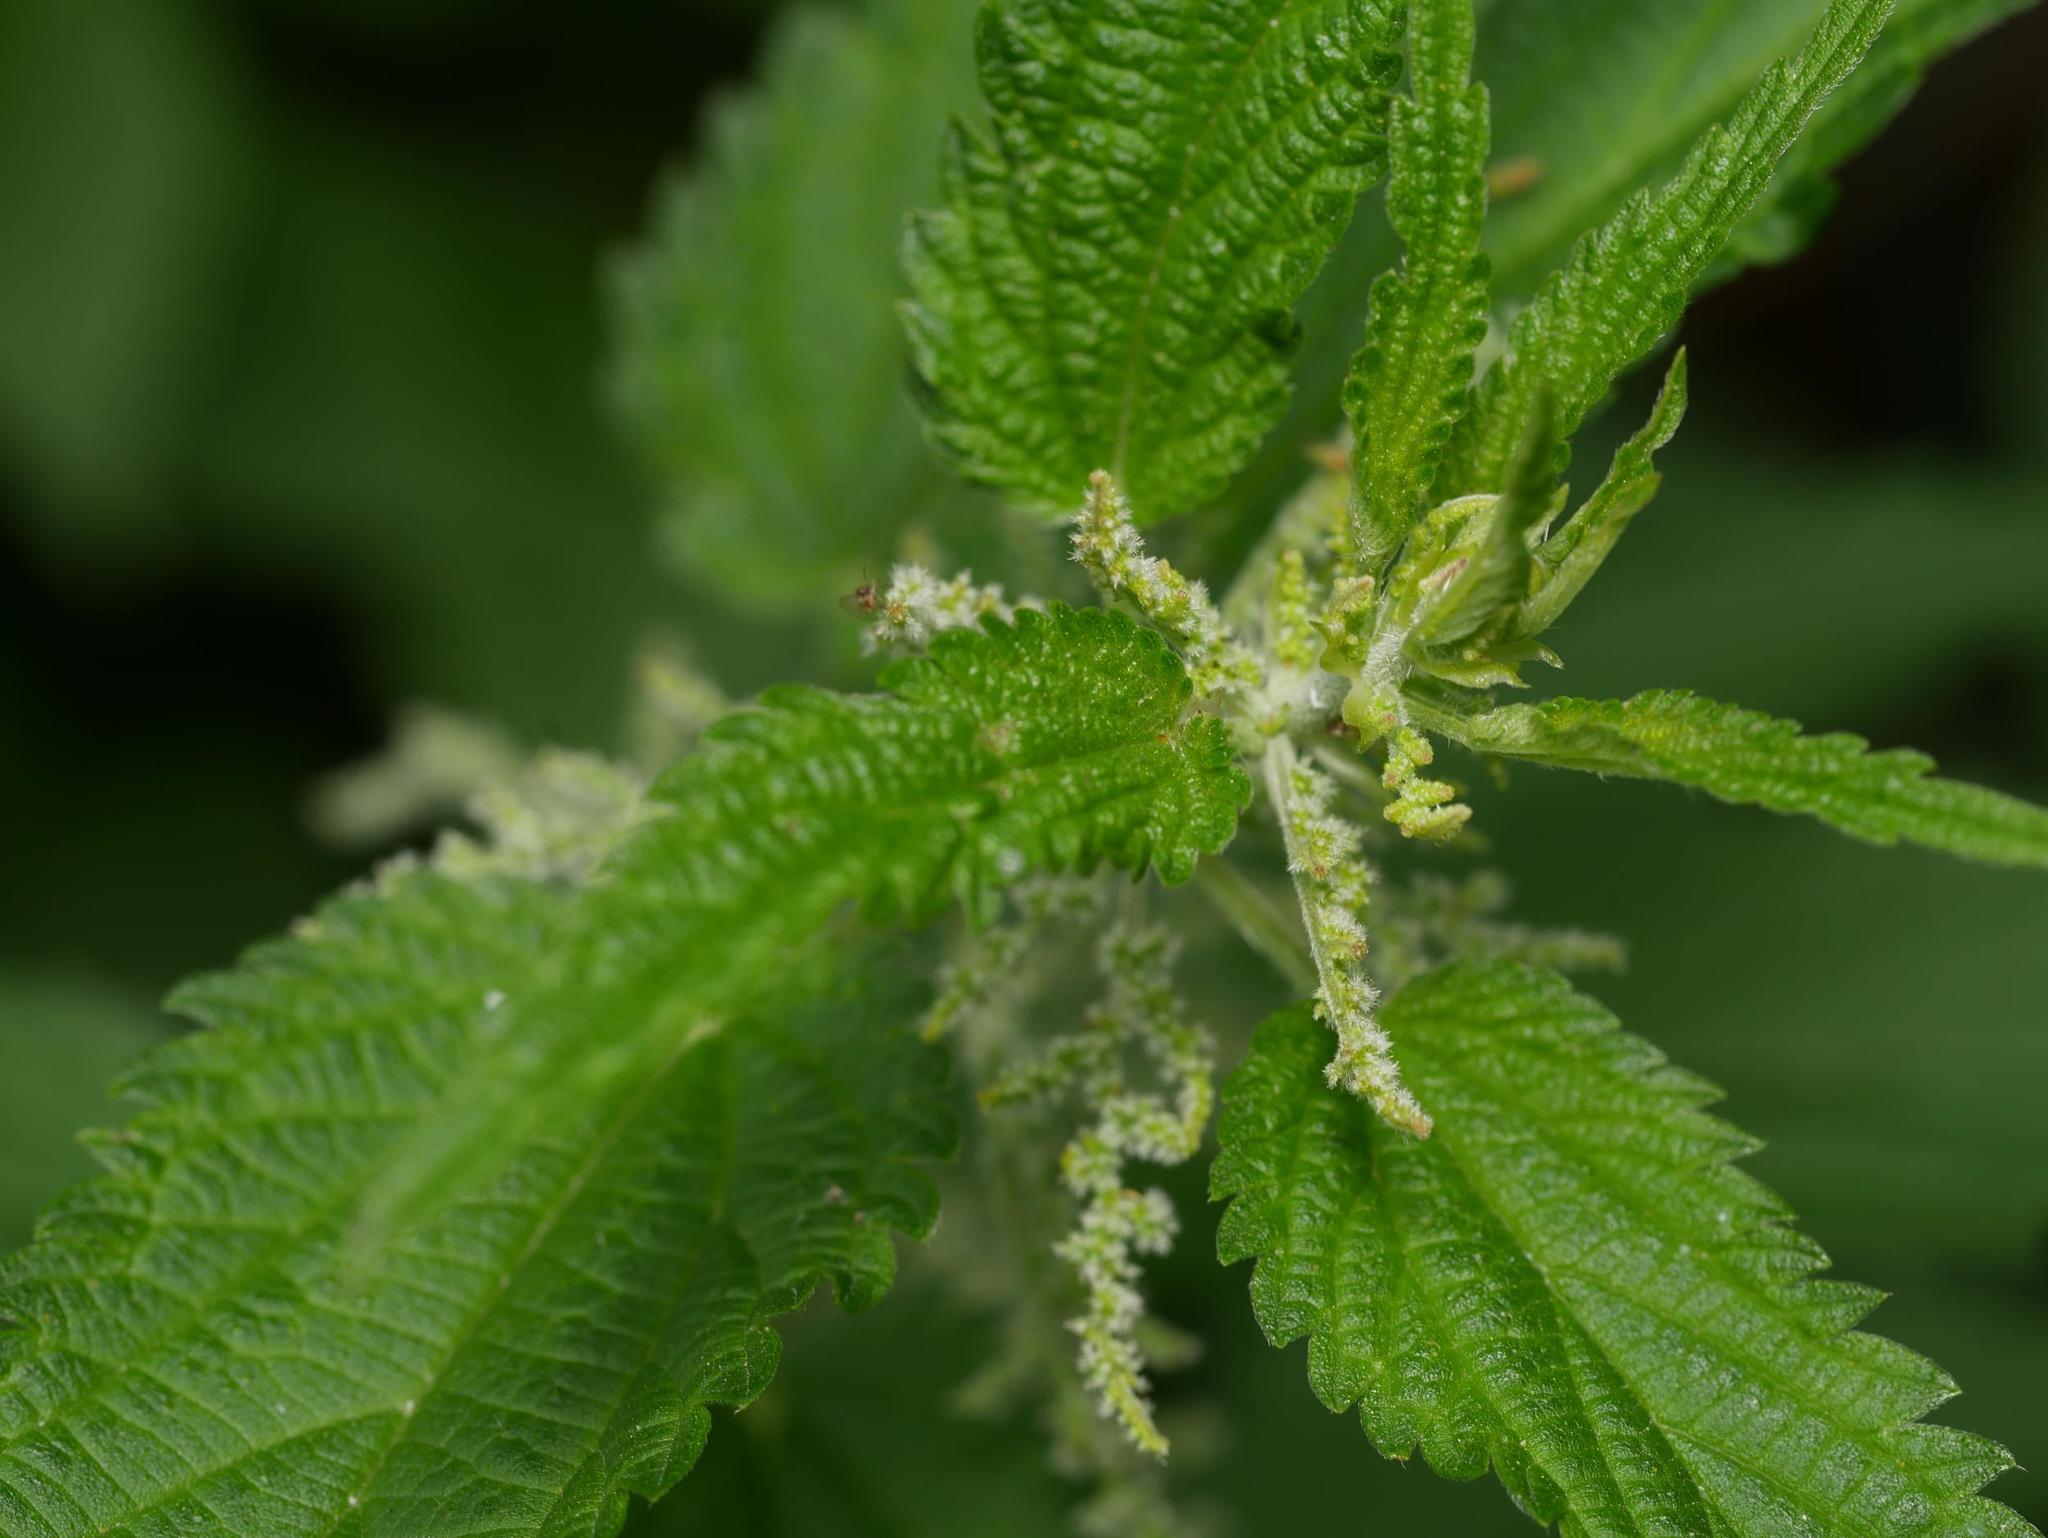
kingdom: Plantae
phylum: Tracheophyta
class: Magnoliopsida
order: Rosales
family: Urticaceae
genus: Urtica
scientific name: Urtica dioica
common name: Common nettle
